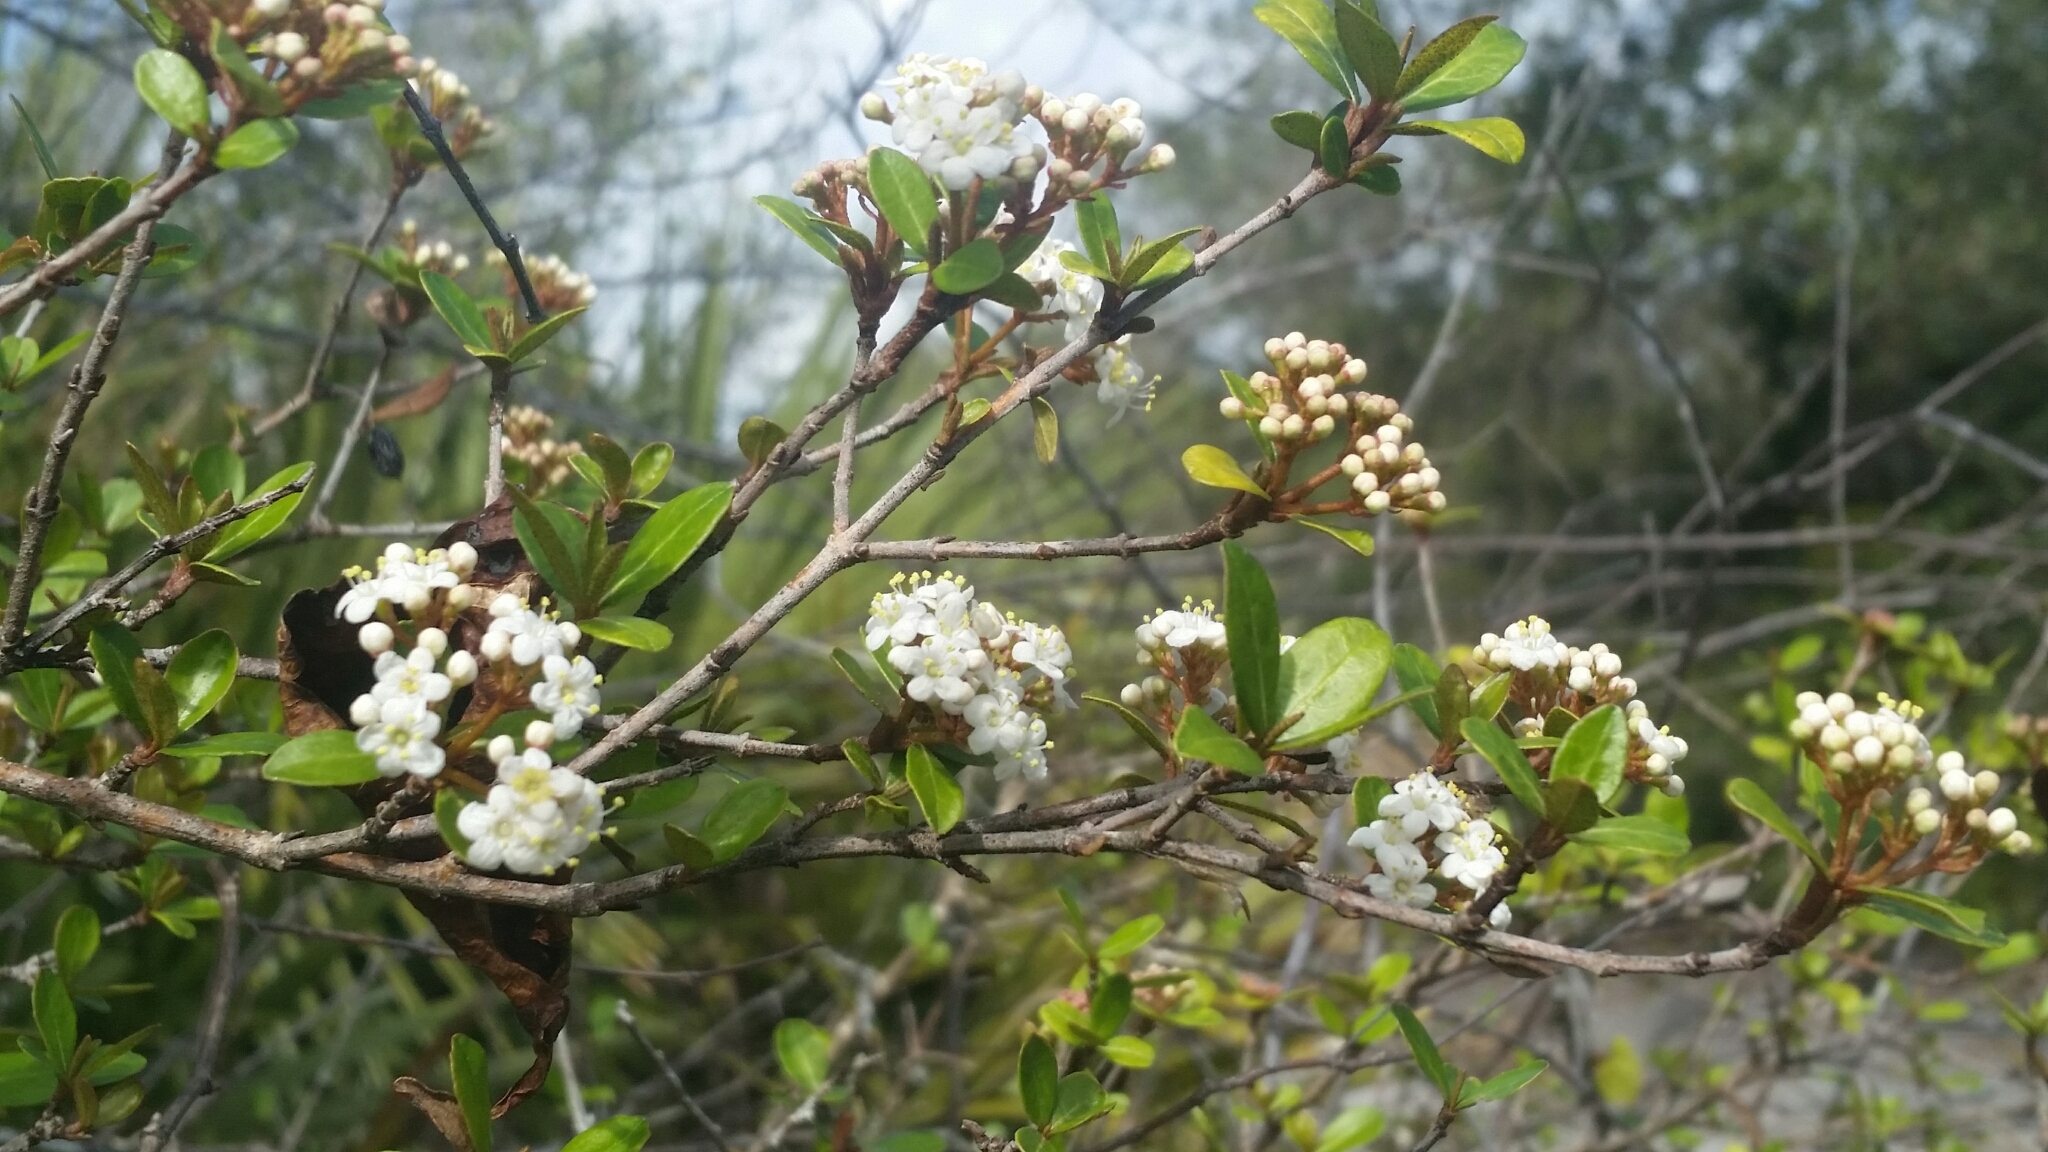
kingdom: Plantae
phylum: Tracheophyta
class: Magnoliopsida
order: Dipsacales
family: Viburnaceae
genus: Viburnum
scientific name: Viburnum obovatum
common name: Walter's viburnum
